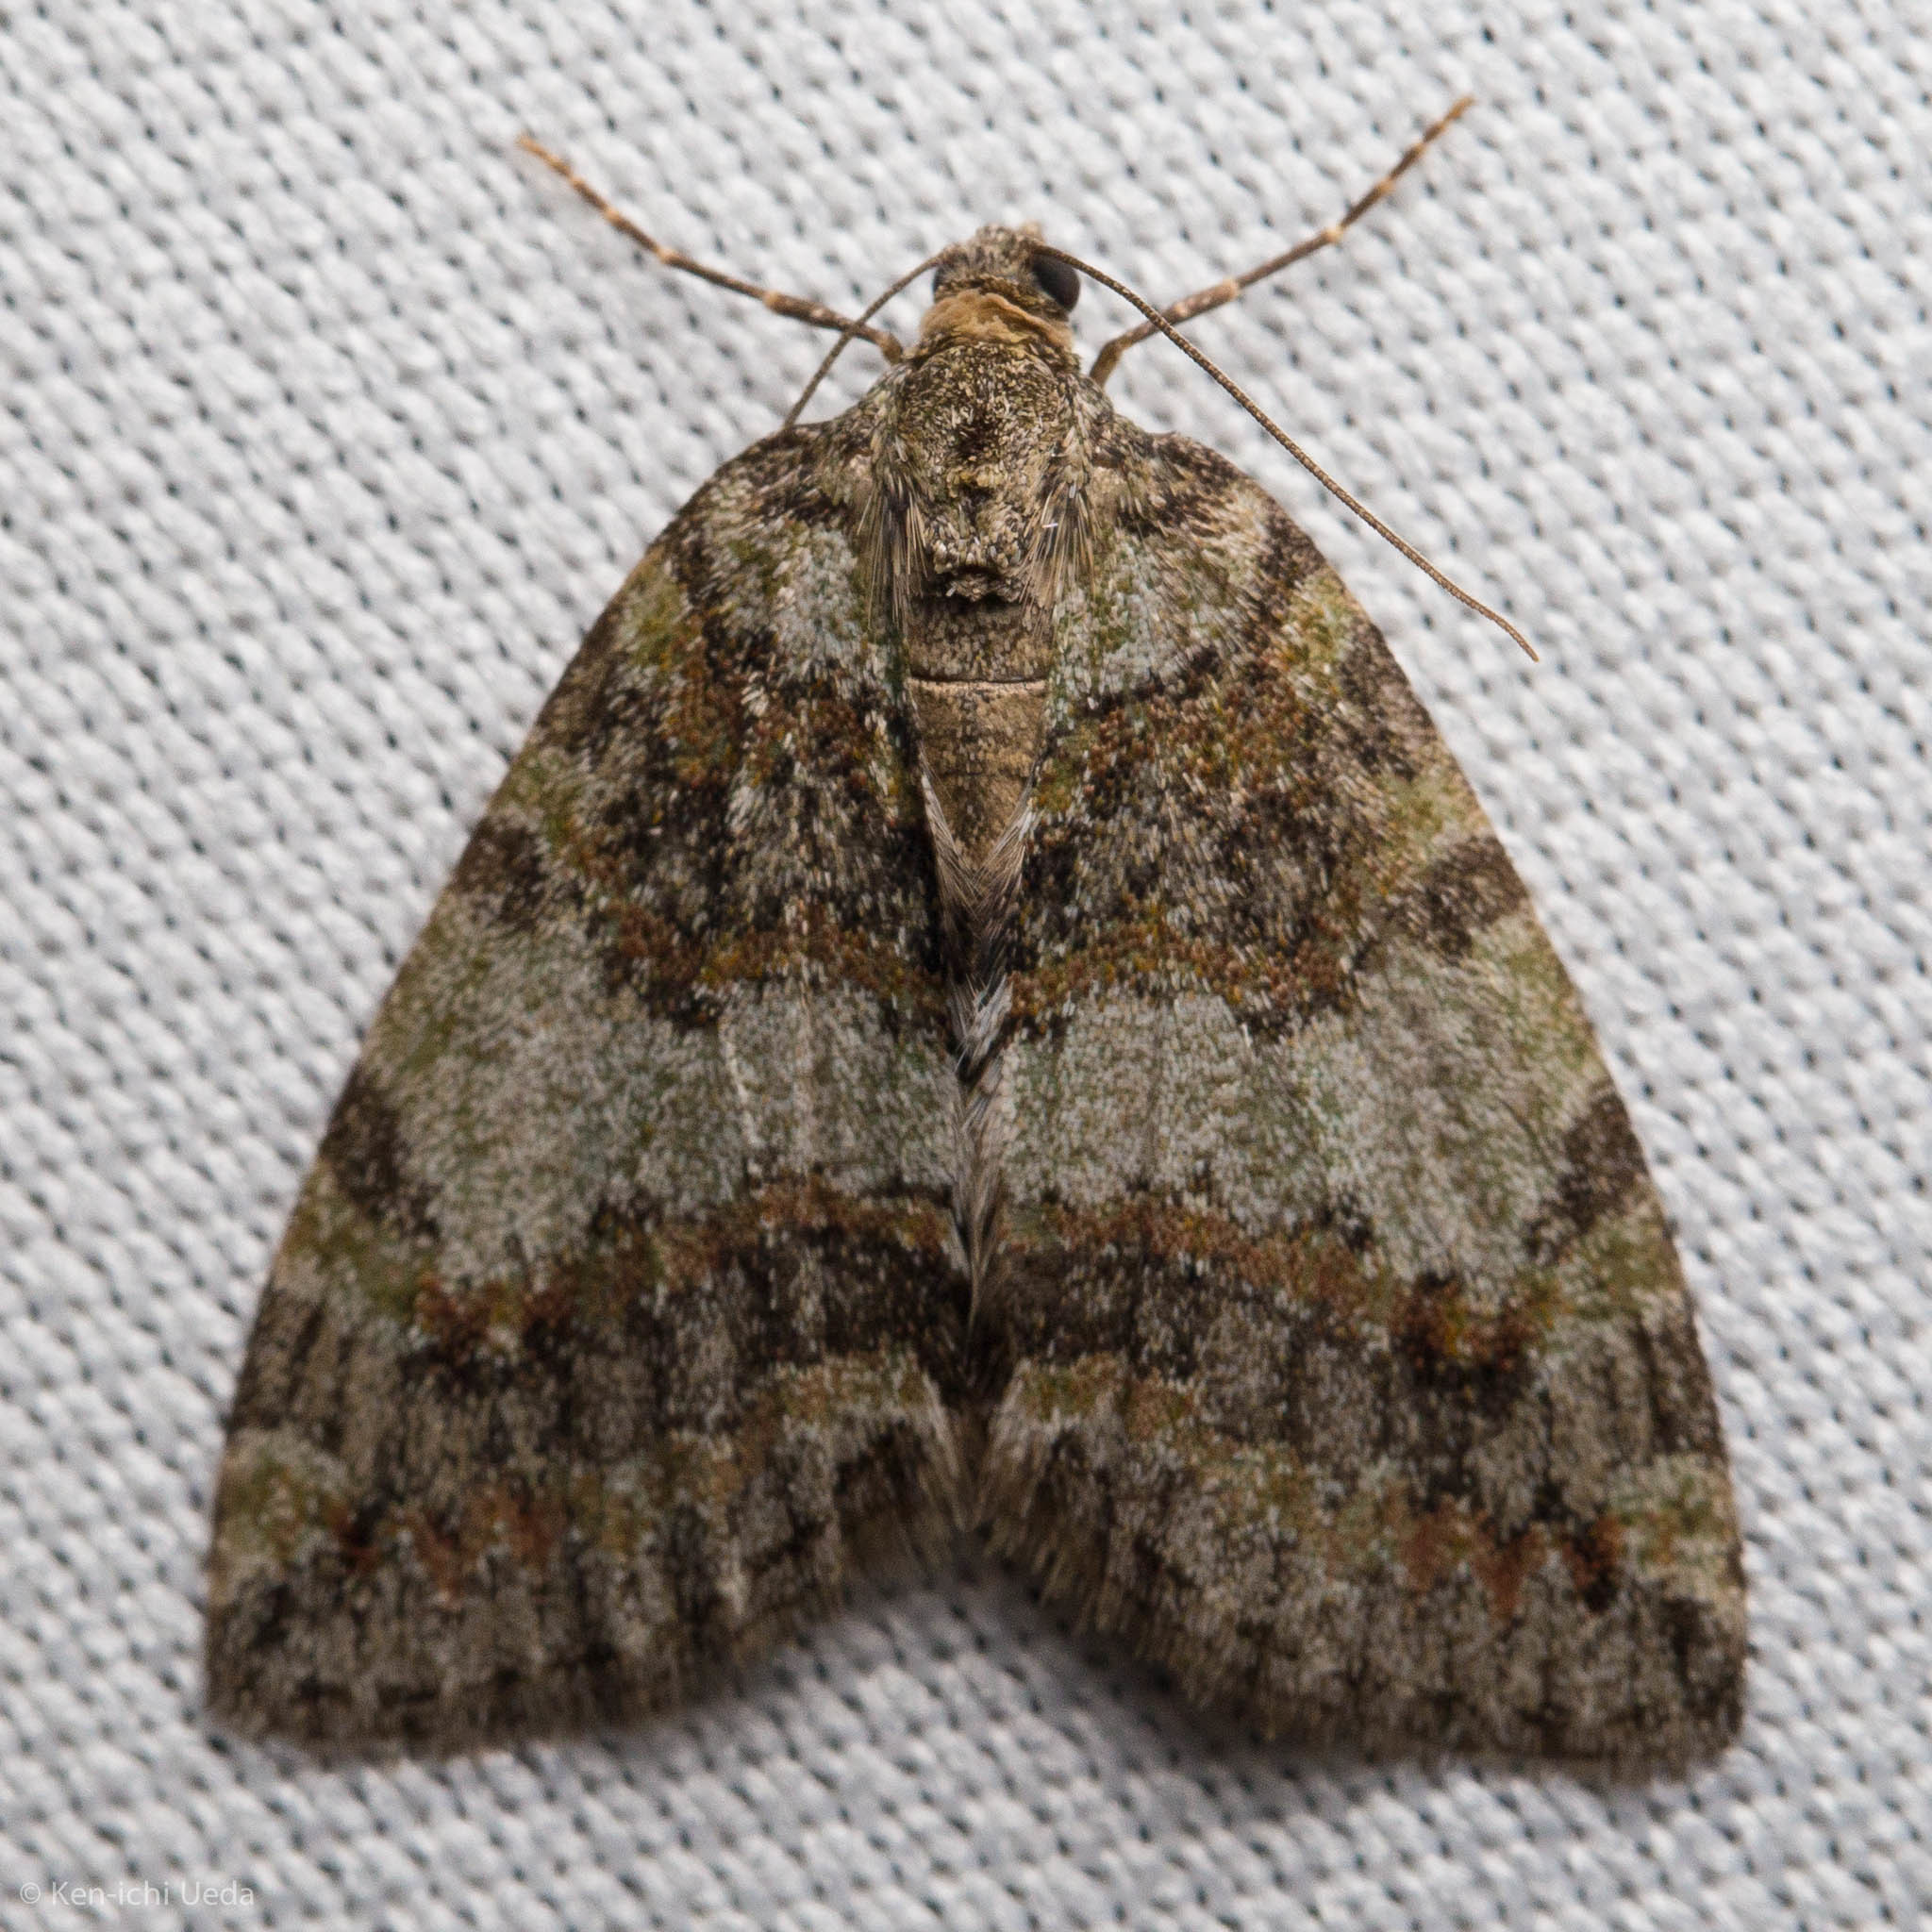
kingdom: Animalia
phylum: Arthropoda
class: Insecta
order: Lepidoptera
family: Geometridae
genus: Hydriomena
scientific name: Hydriomena nubilofasciata
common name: Oak winter highflier moth
